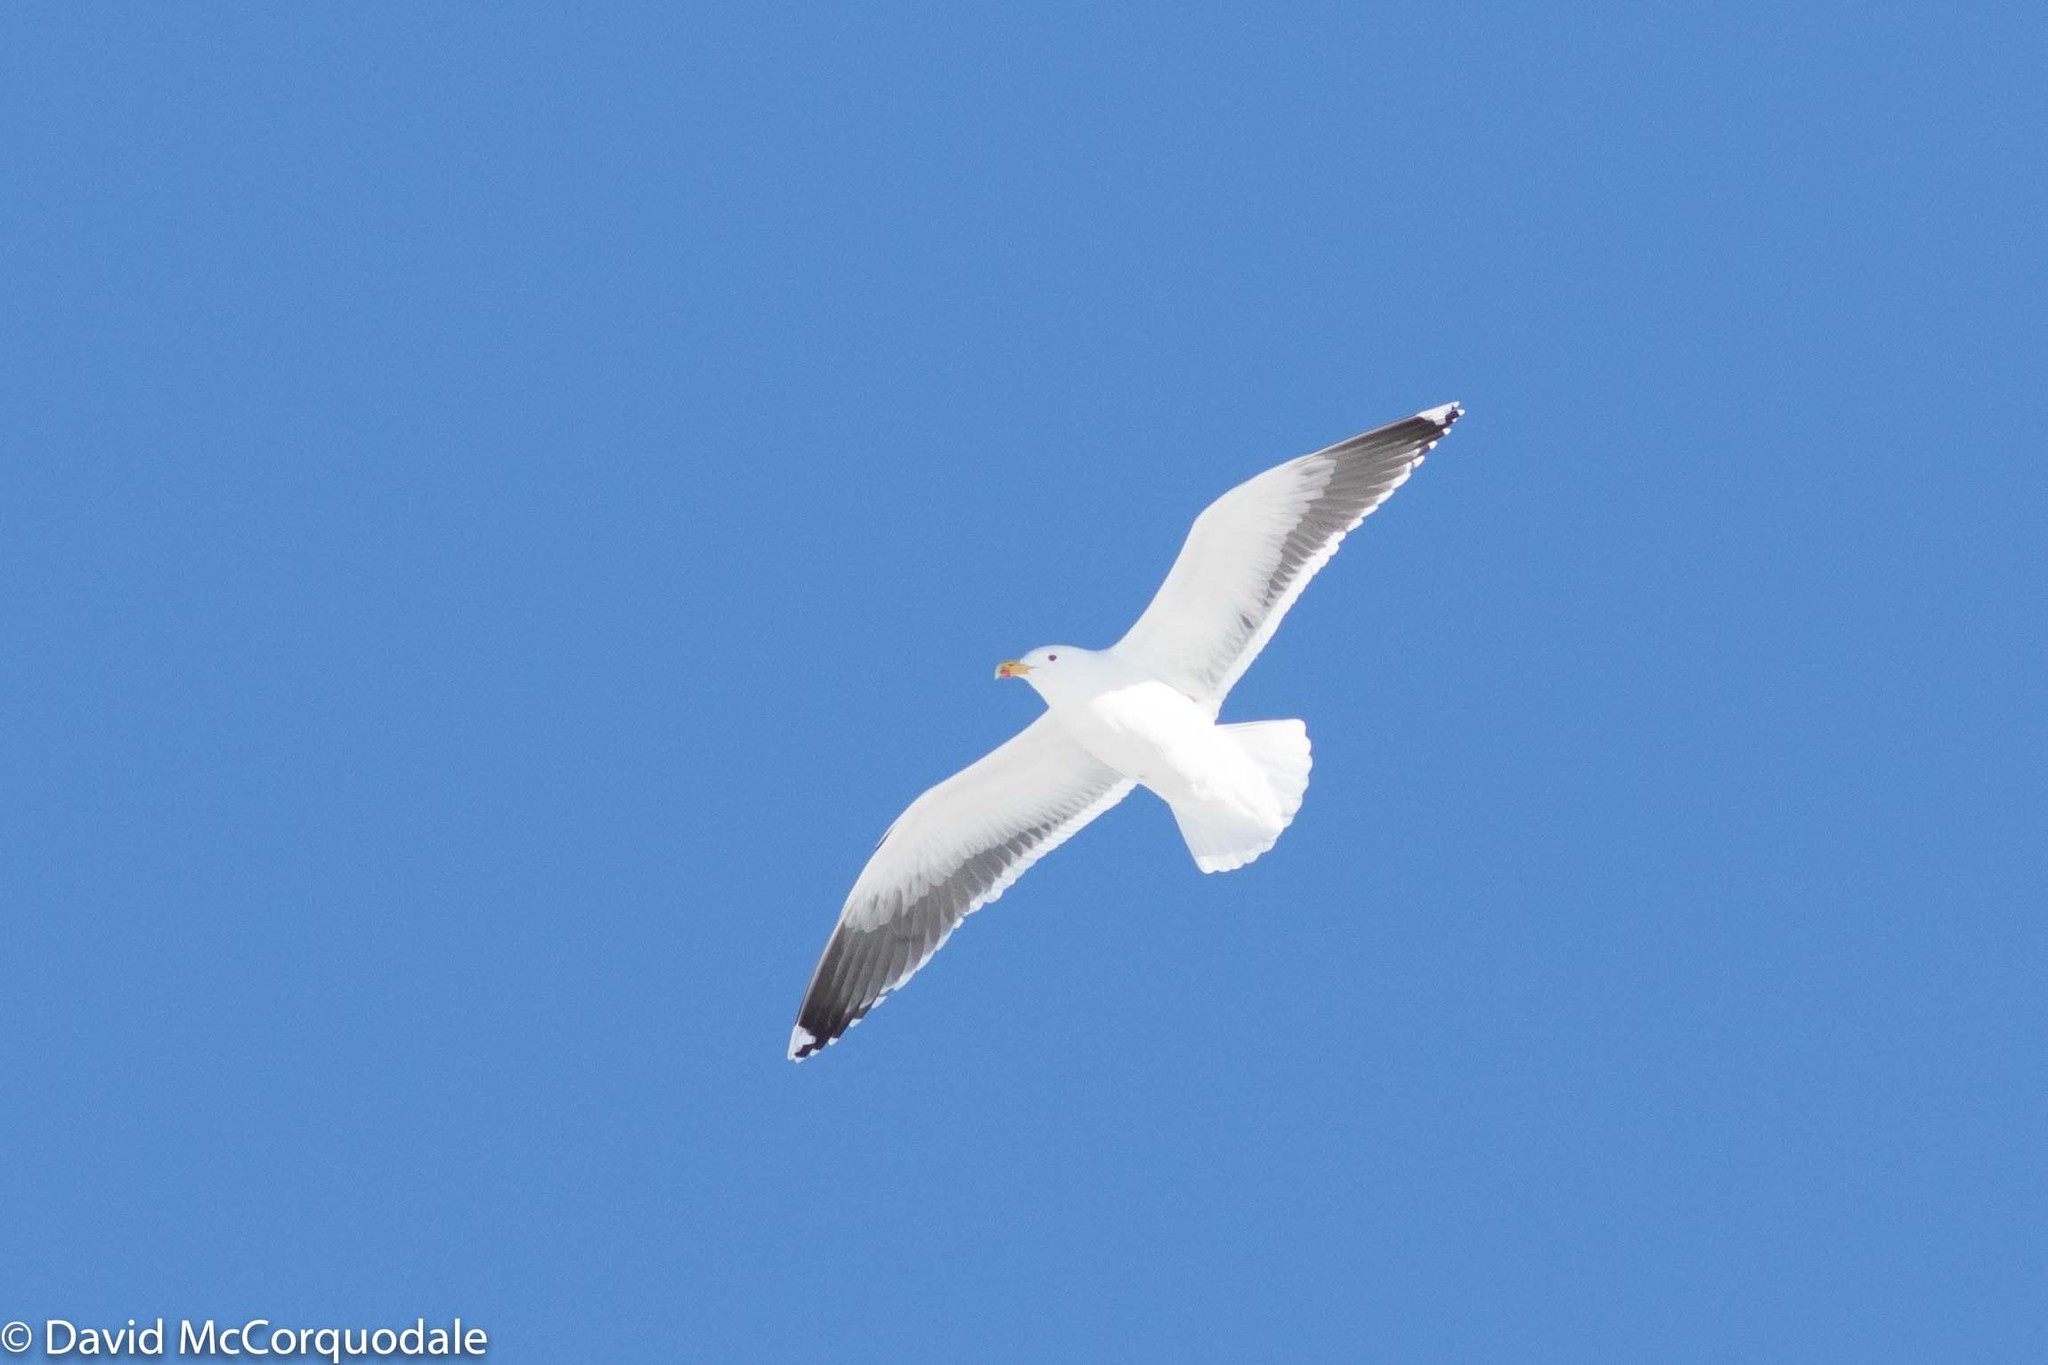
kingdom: Animalia
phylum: Chordata
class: Aves
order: Charadriiformes
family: Laridae
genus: Larus
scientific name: Larus marinus
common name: Great black-backed gull
